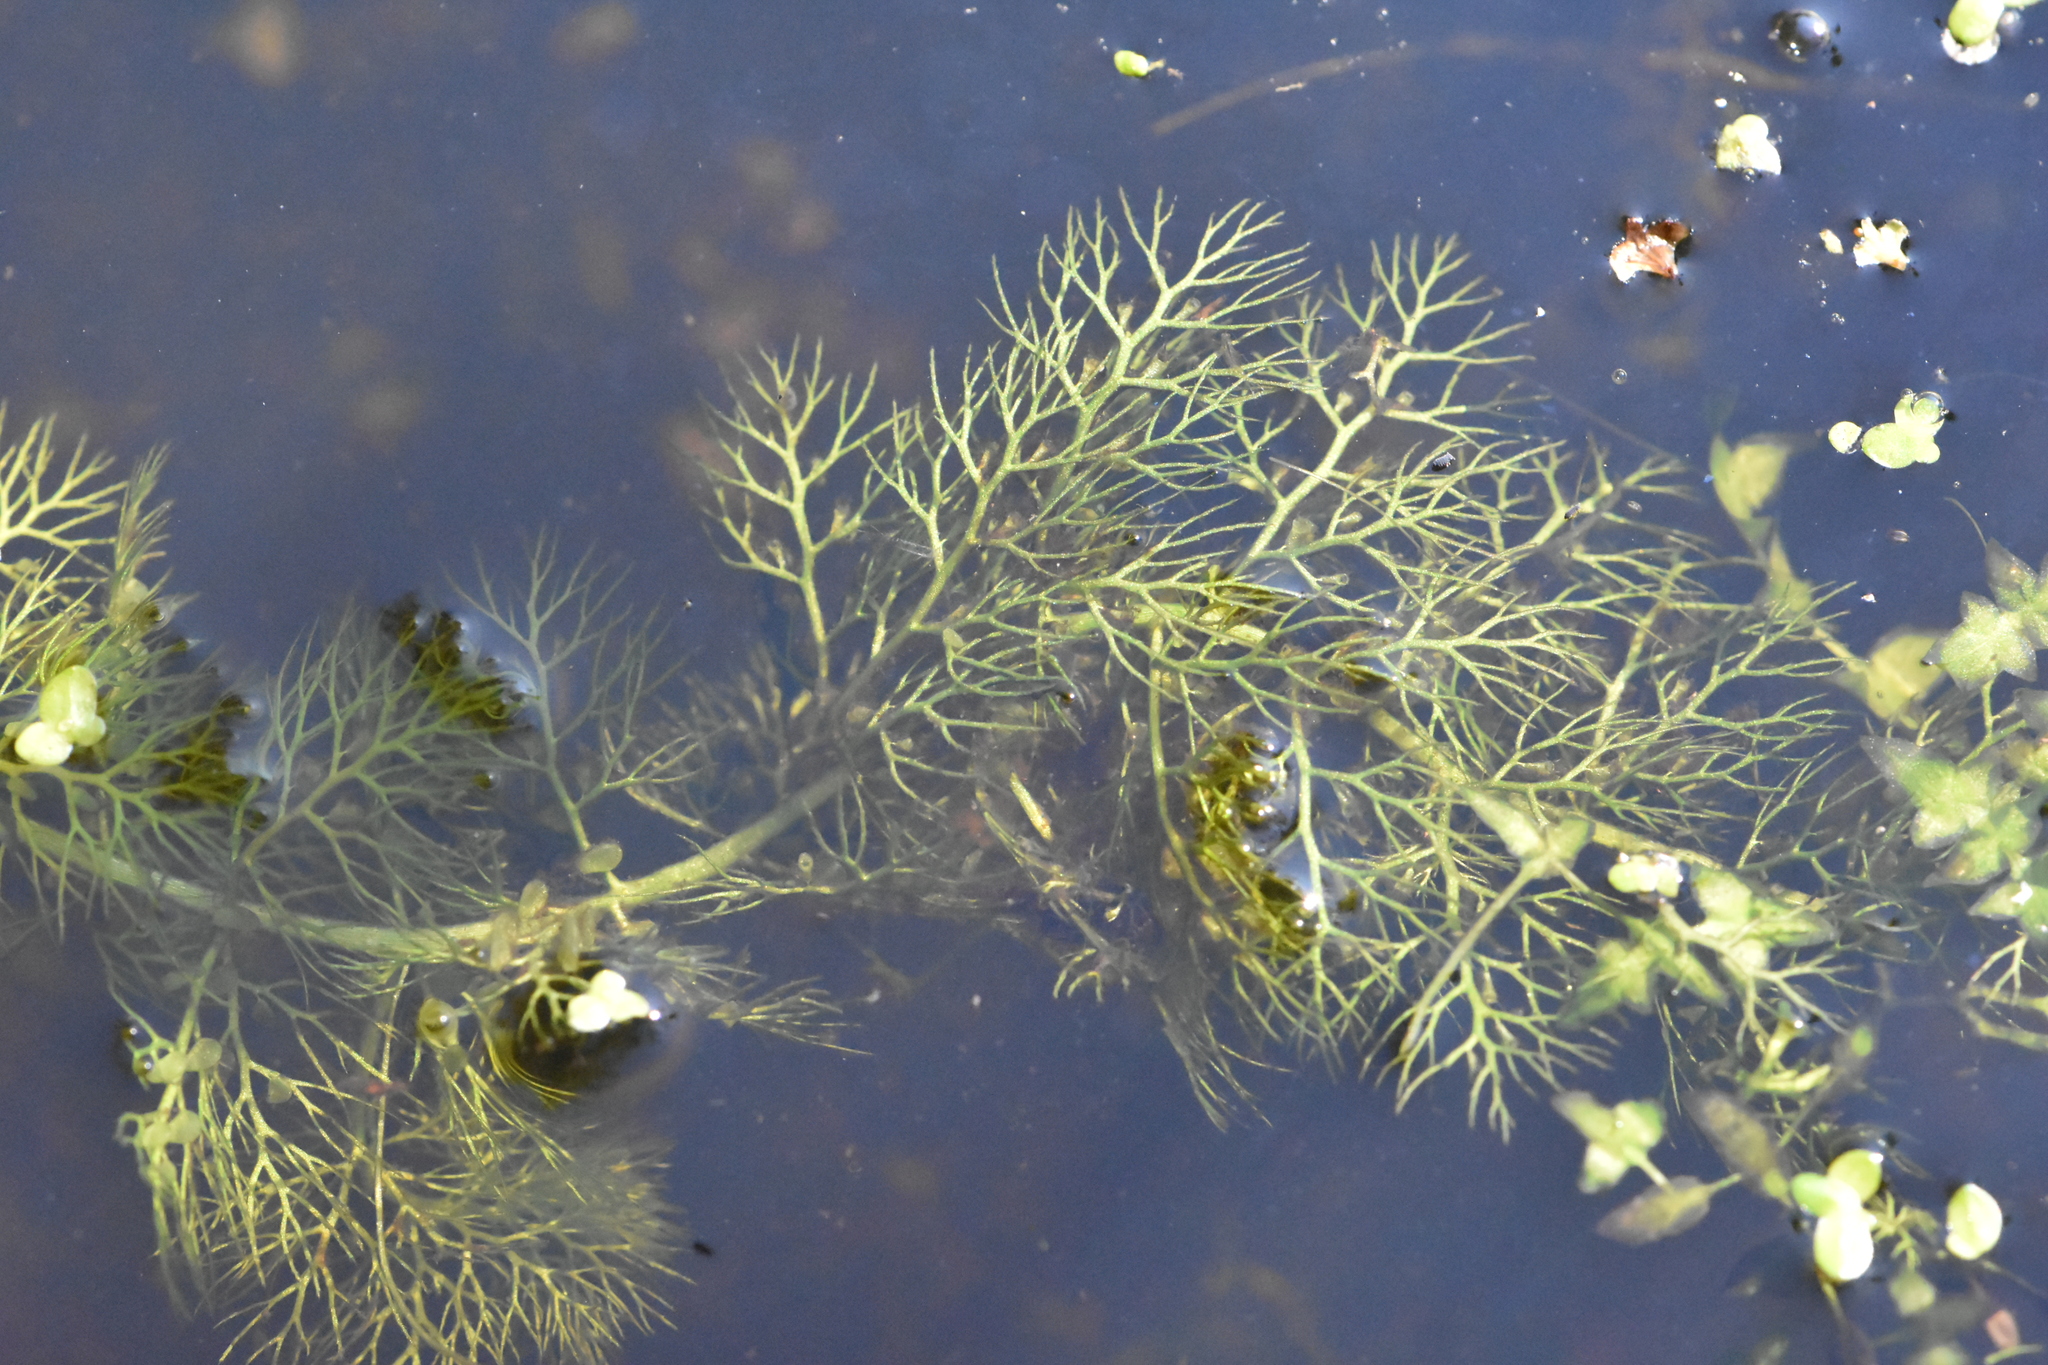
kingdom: Plantae
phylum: Tracheophyta
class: Magnoliopsida
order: Lamiales
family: Lentibulariaceae
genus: Utricularia
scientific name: Utricularia
